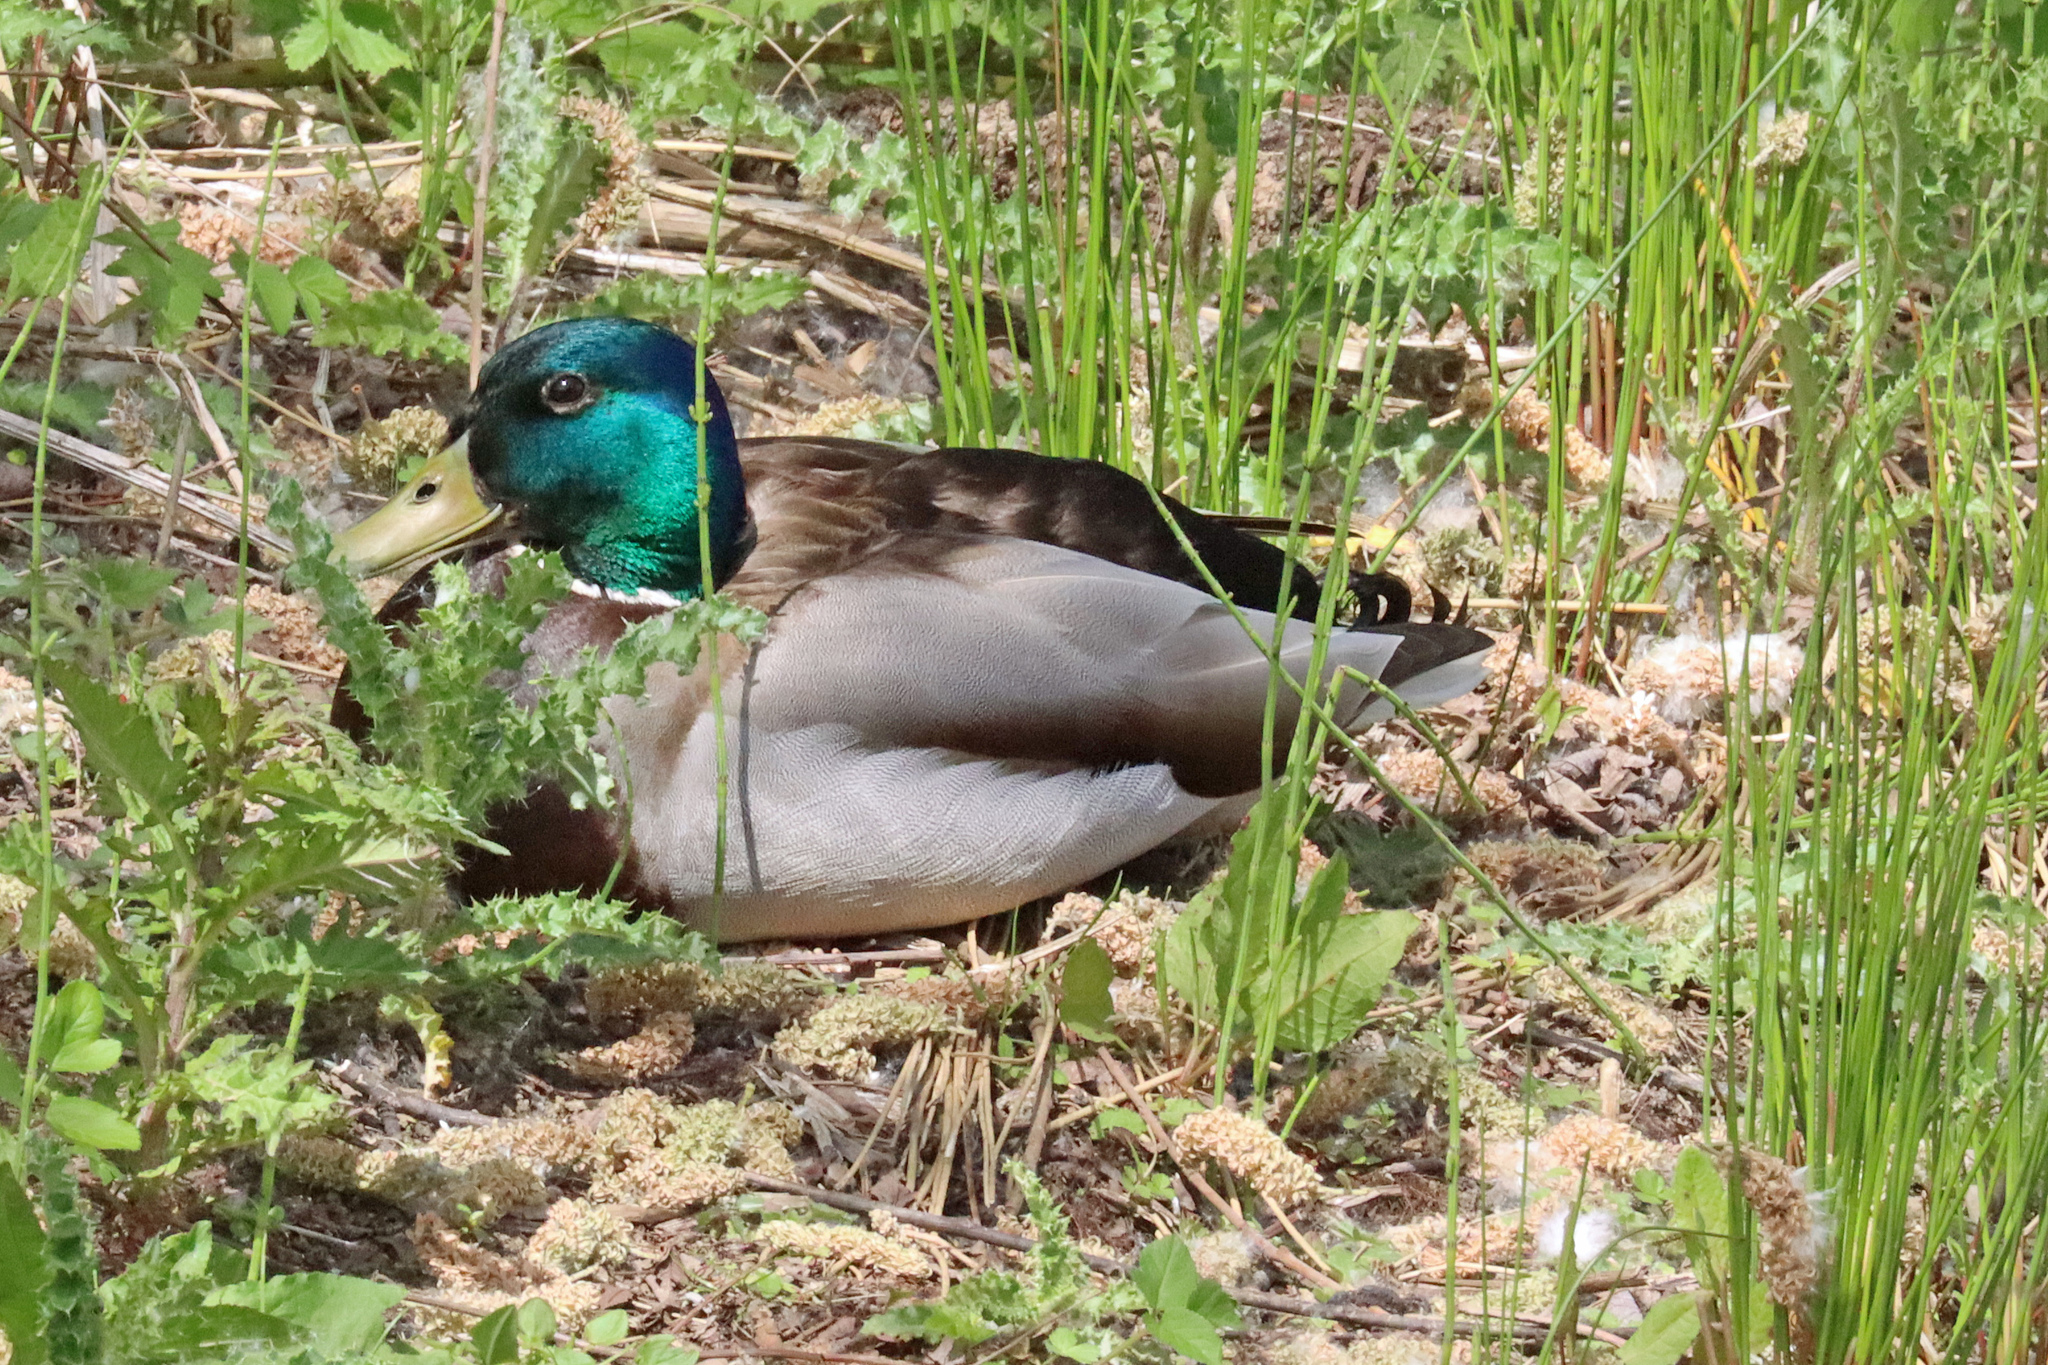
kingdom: Animalia
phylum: Chordata
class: Aves
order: Anseriformes
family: Anatidae
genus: Anas
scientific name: Anas platyrhynchos
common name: Mallard
